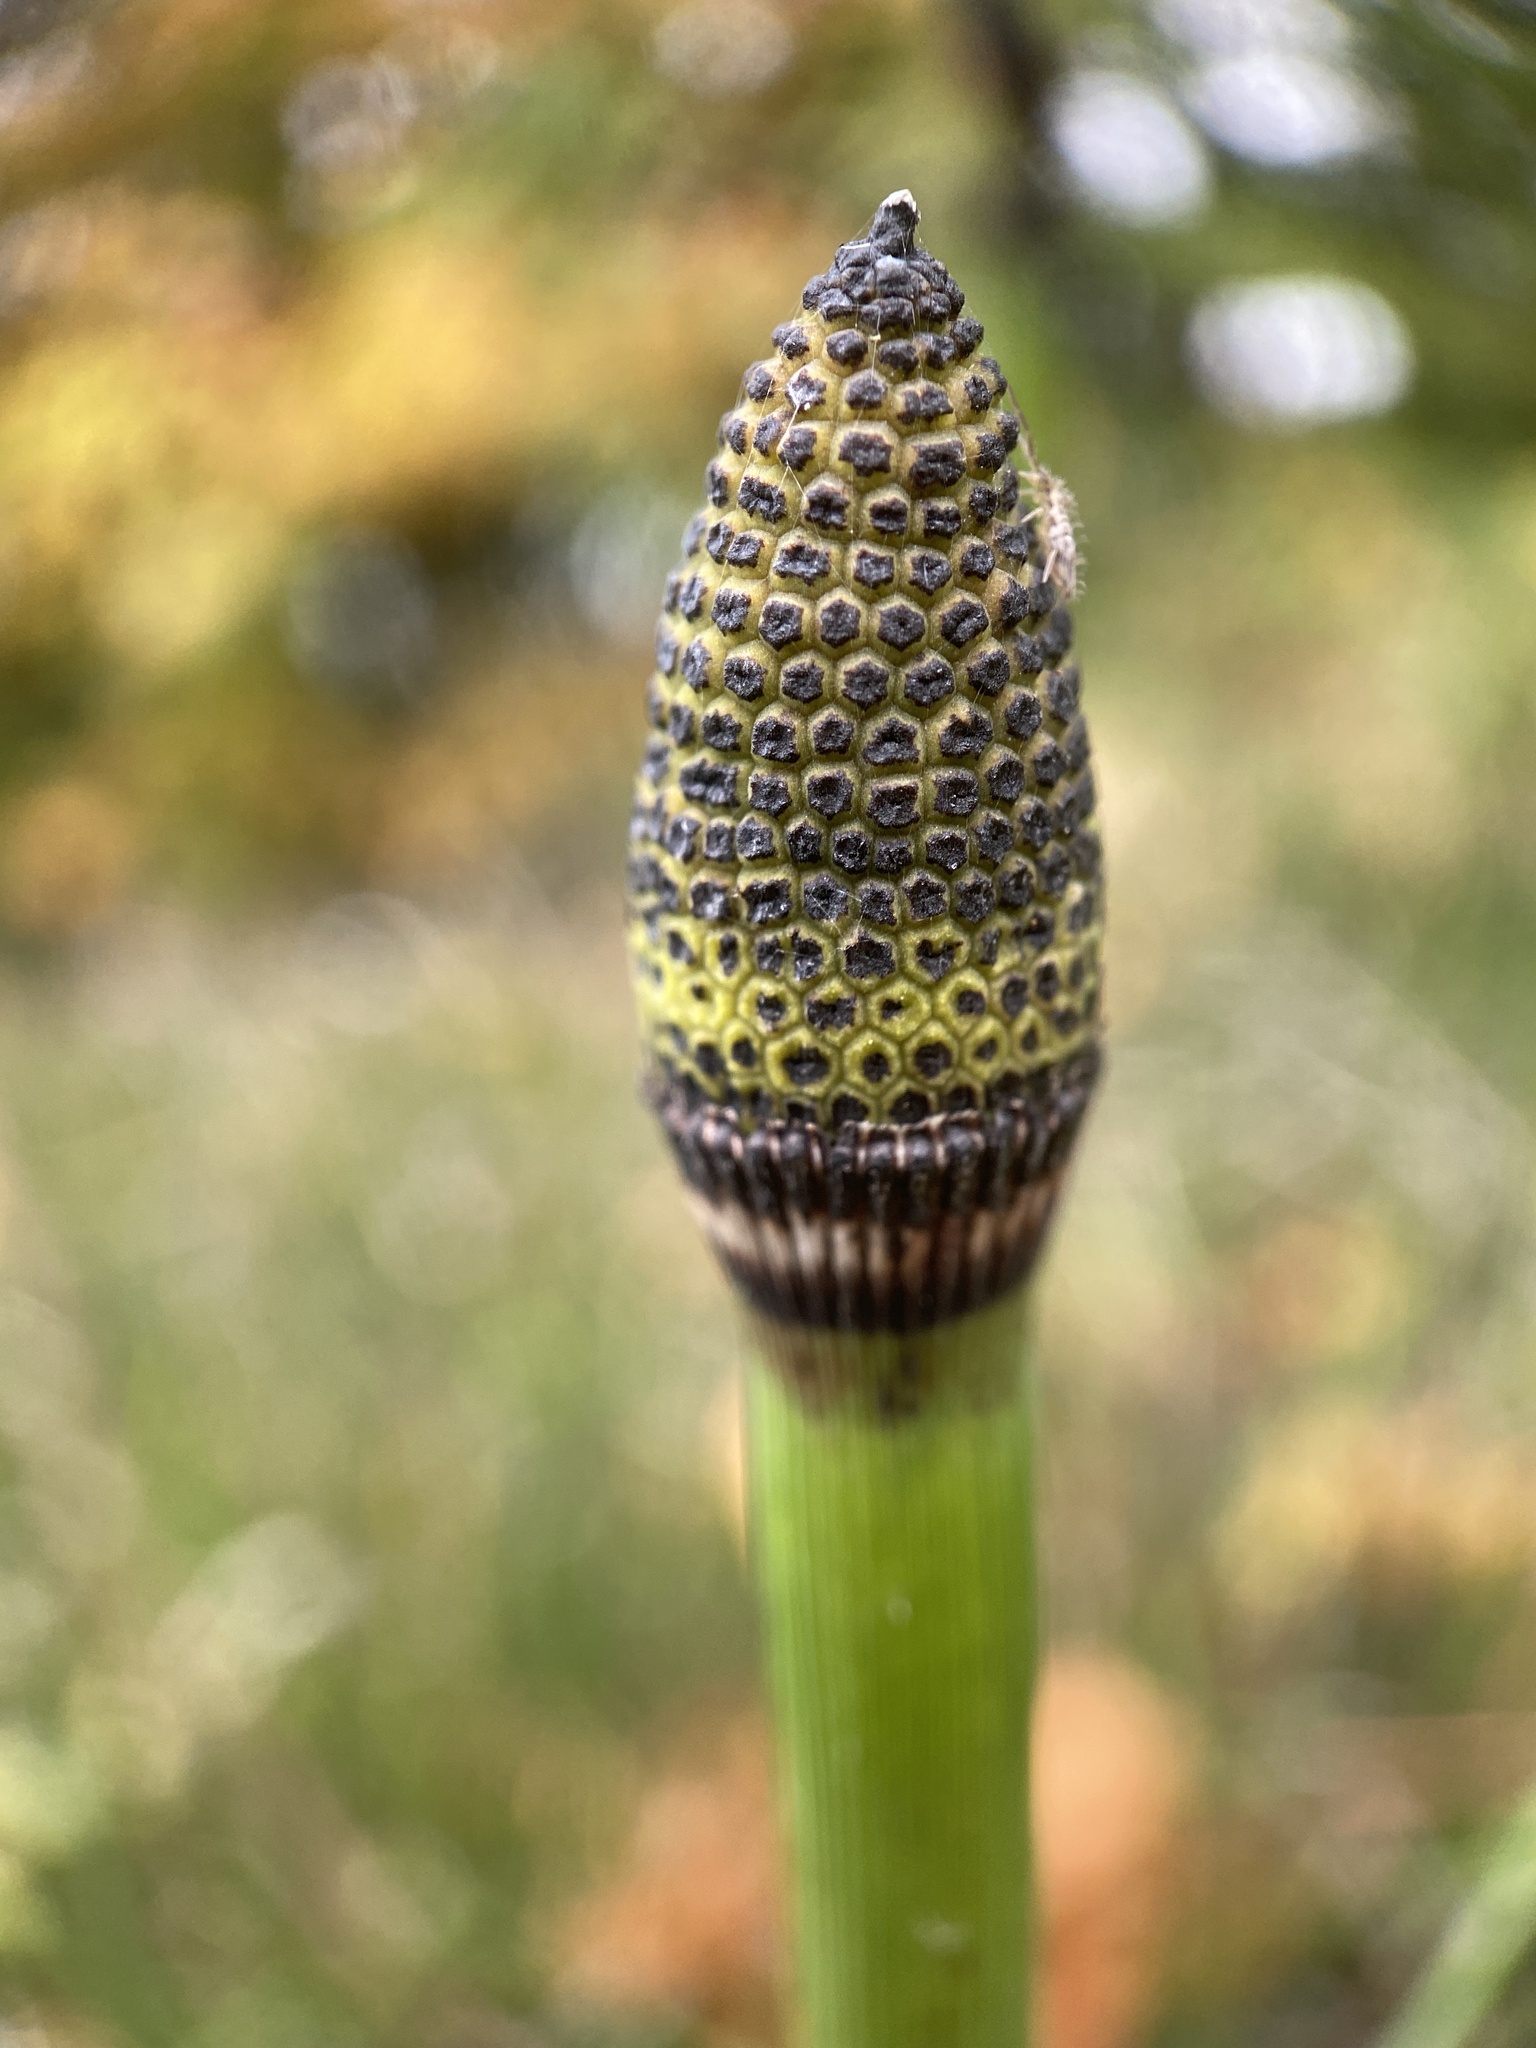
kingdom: Plantae
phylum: Tracheophyta
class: Polypodiopsida
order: Equisetales
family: Equisetaceae
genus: Equisetum
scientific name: Equisetum hyemale
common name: Rough horsetail
